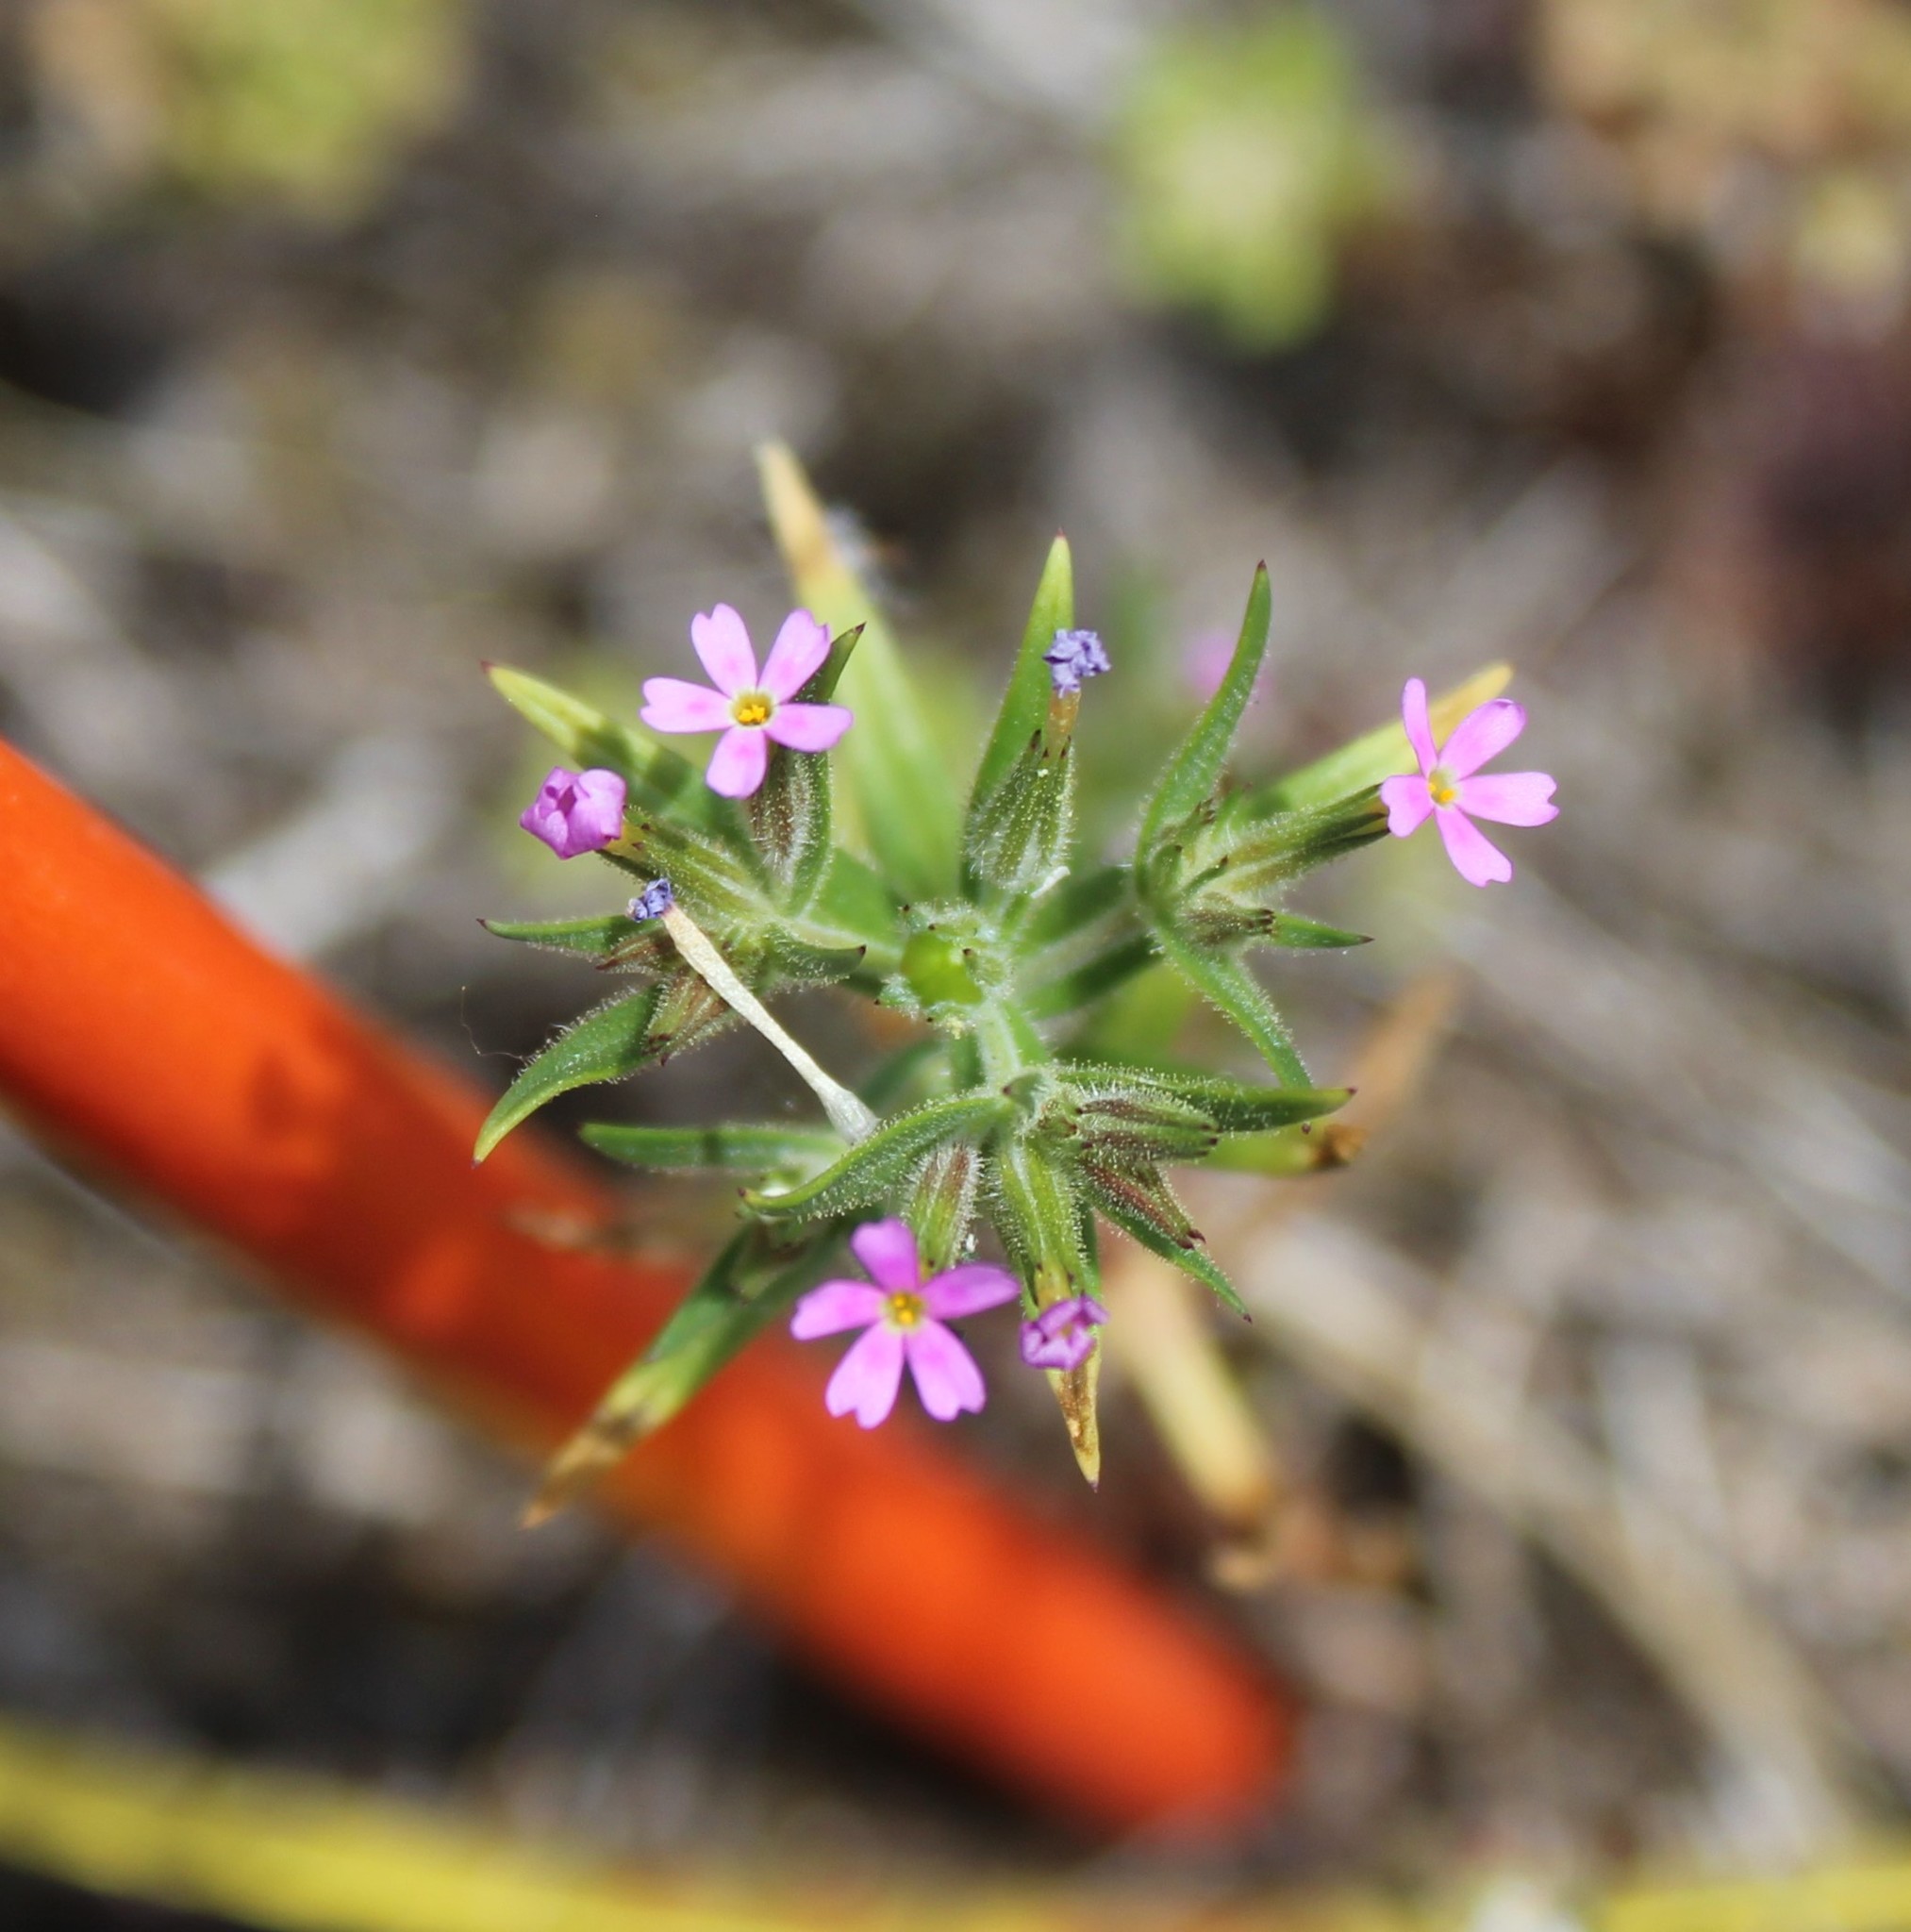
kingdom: Plantae
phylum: Tracheophyta
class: Magnoliopsida
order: Ericales
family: Polemoniaceae
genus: Phlox
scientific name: Phlox gracilis
